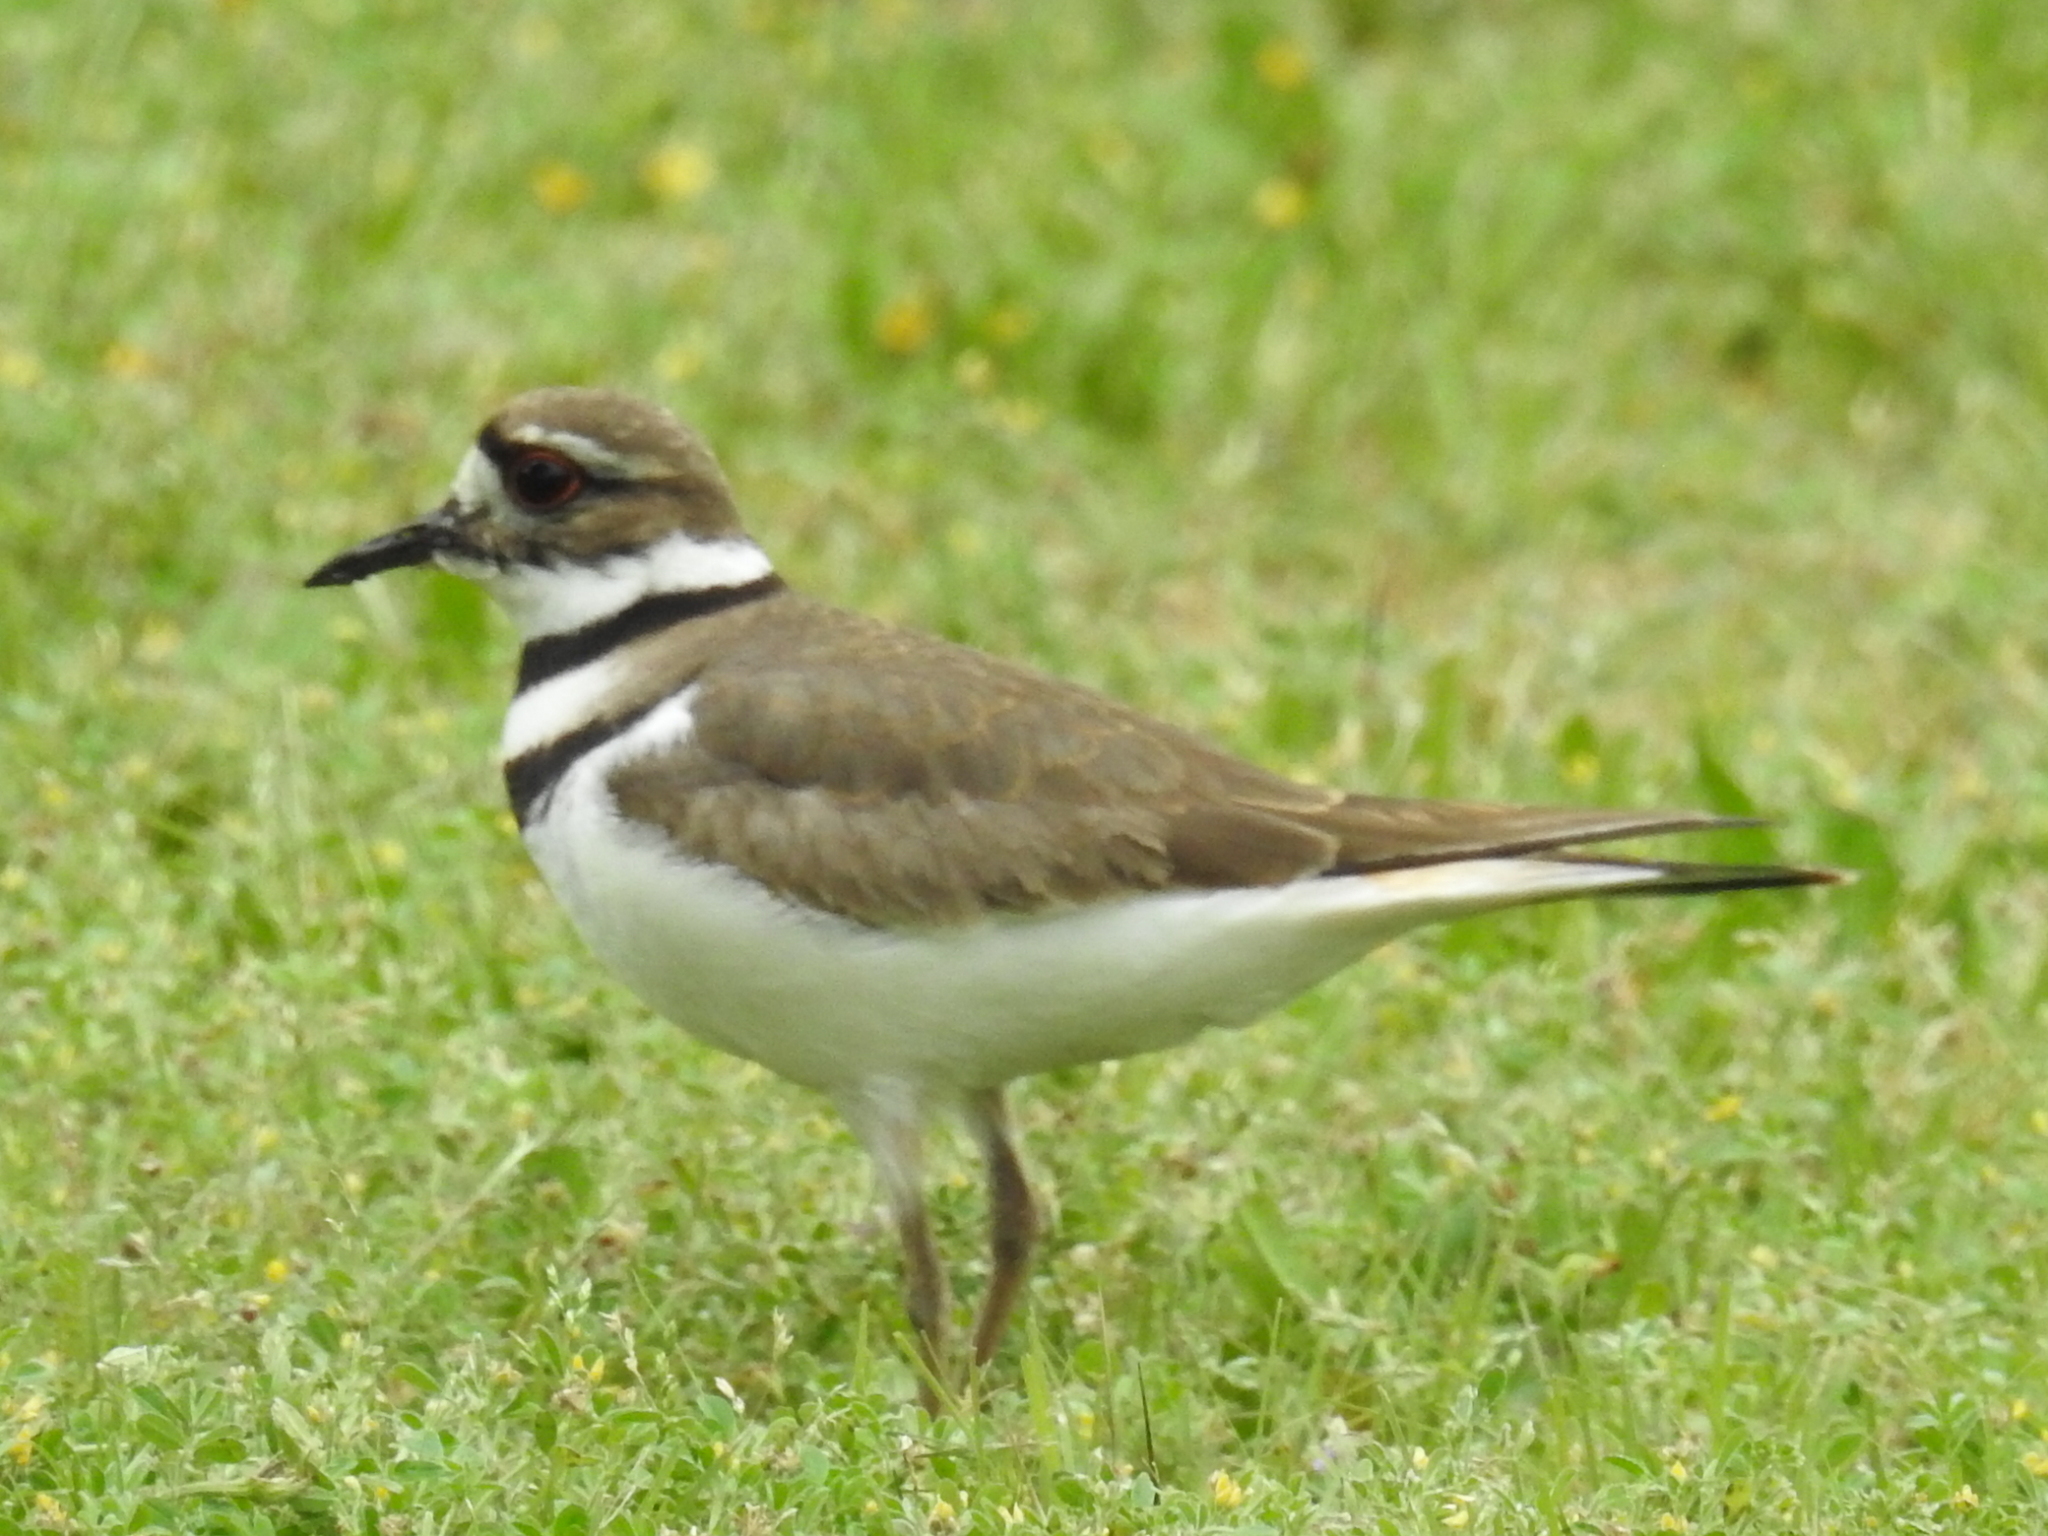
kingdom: Animalia
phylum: Chordata
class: Aves
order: Charadriiformes
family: Charadriidae
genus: Charadrius
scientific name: Charadrius vociferus
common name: Killdeer
